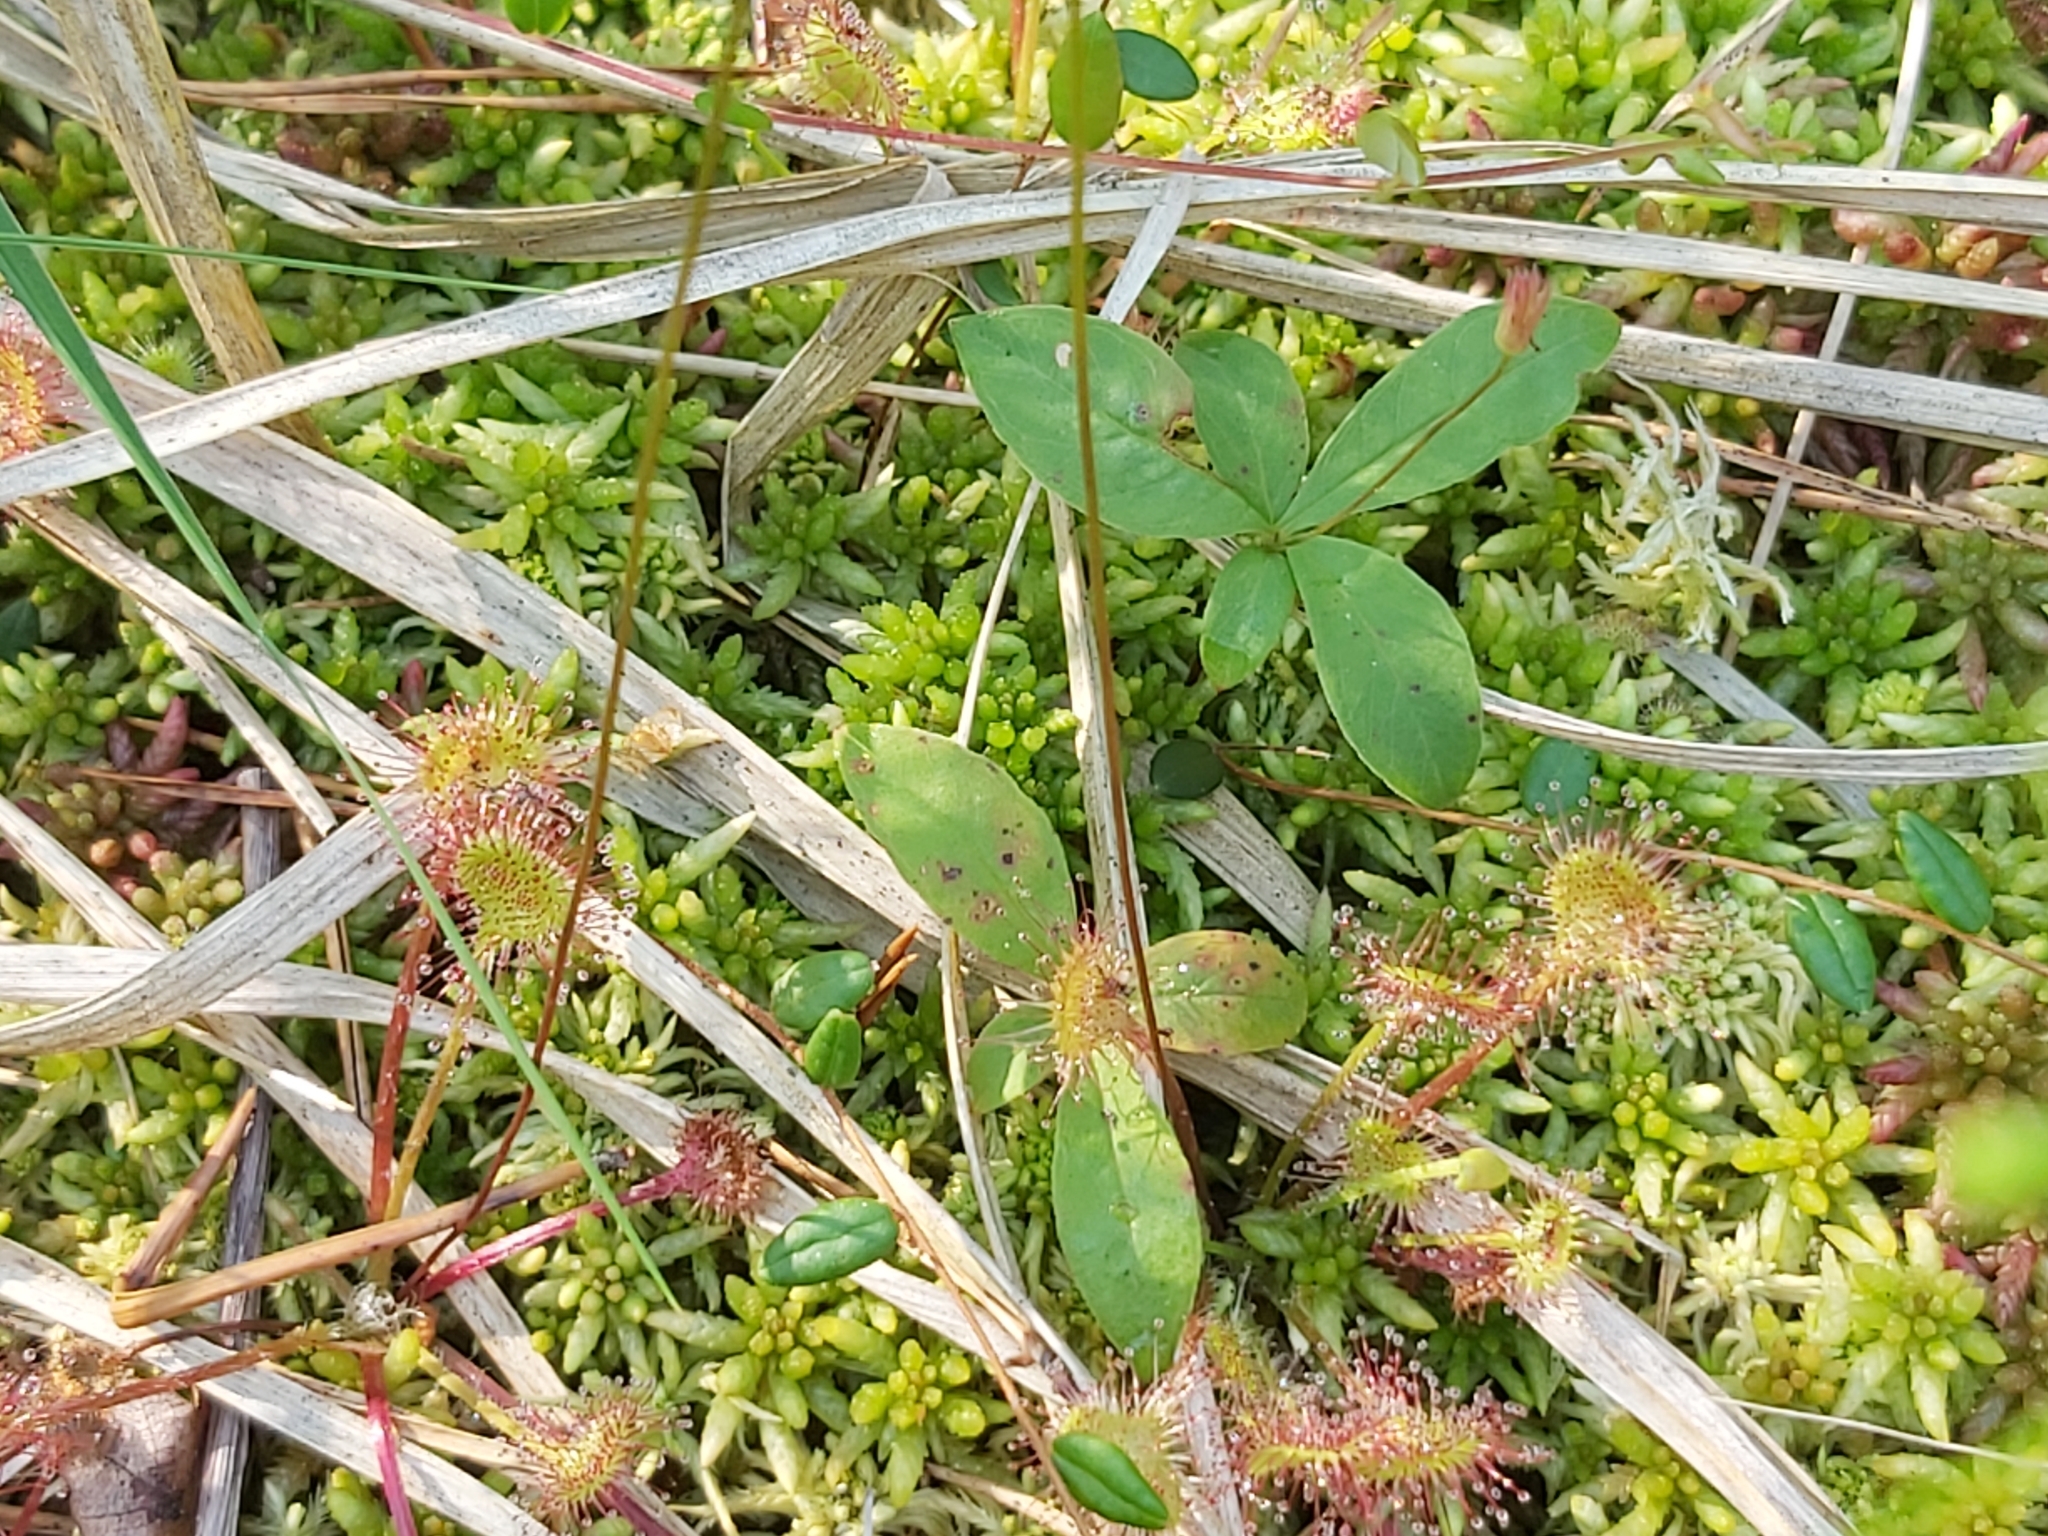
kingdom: Plantae
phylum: Tracheophyta
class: Magnoliopsida
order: Caryophyllales
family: Droseraceae
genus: Drosera
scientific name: Drosera rotundifolia
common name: Round-leaved sundew
